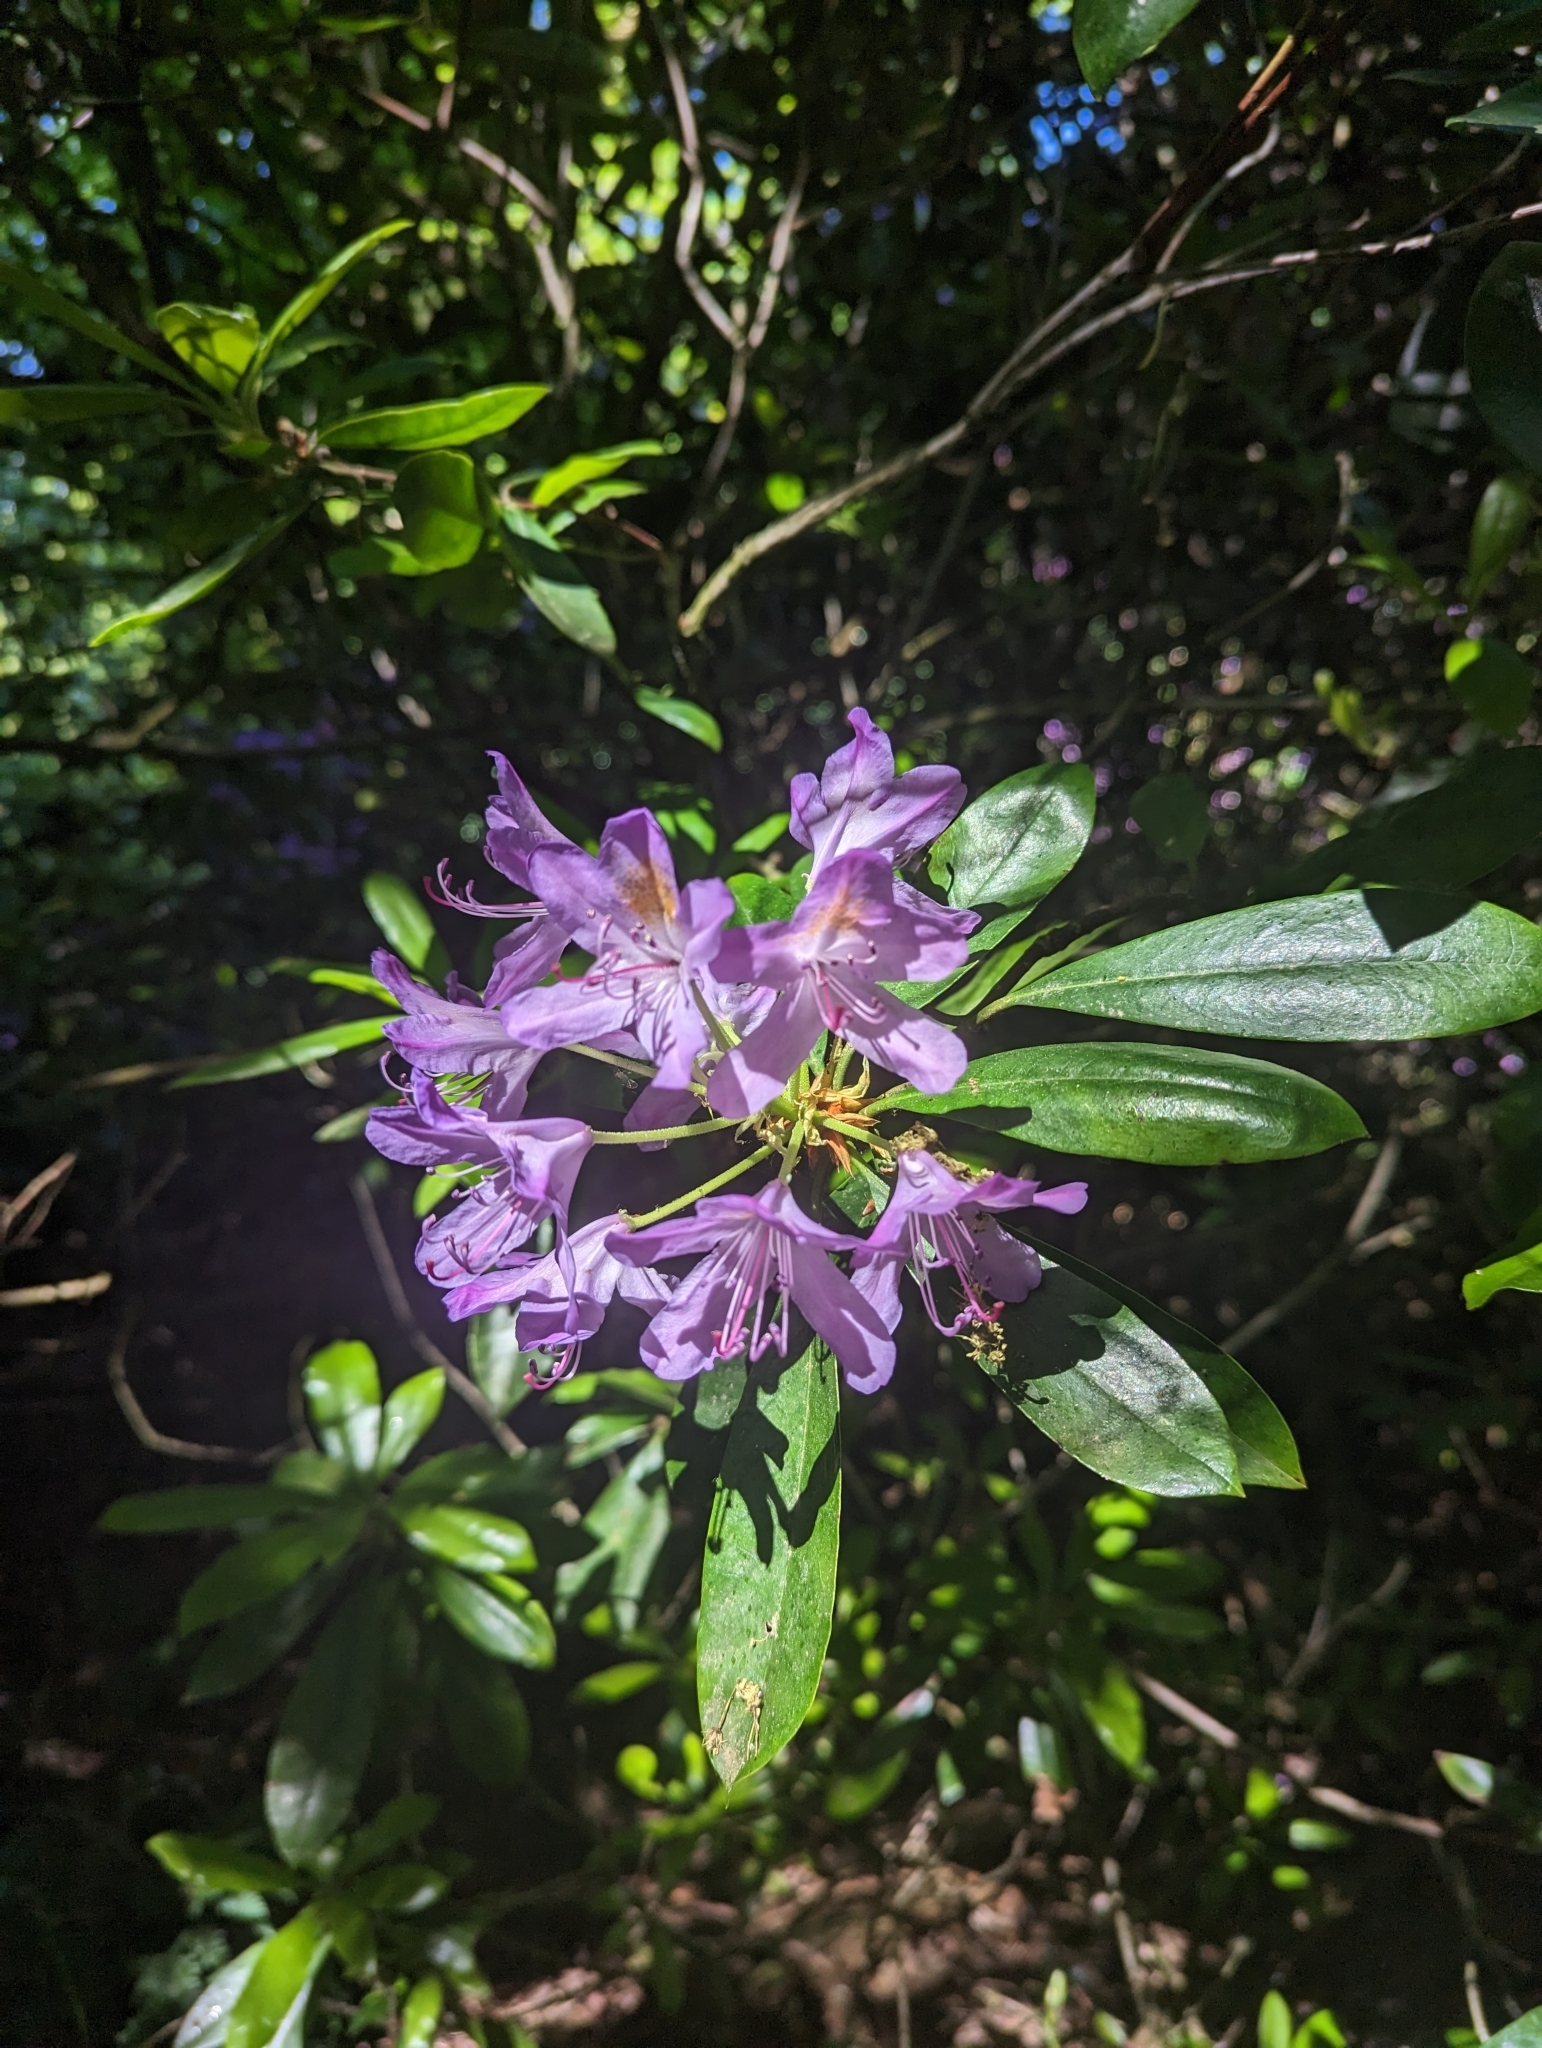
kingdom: Plantae
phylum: Tracheophyta
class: Magnoliopsida
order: Ericales
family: Ericaceae
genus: Rhododendron
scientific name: Rhododendron ponticum
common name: Rhododendron
